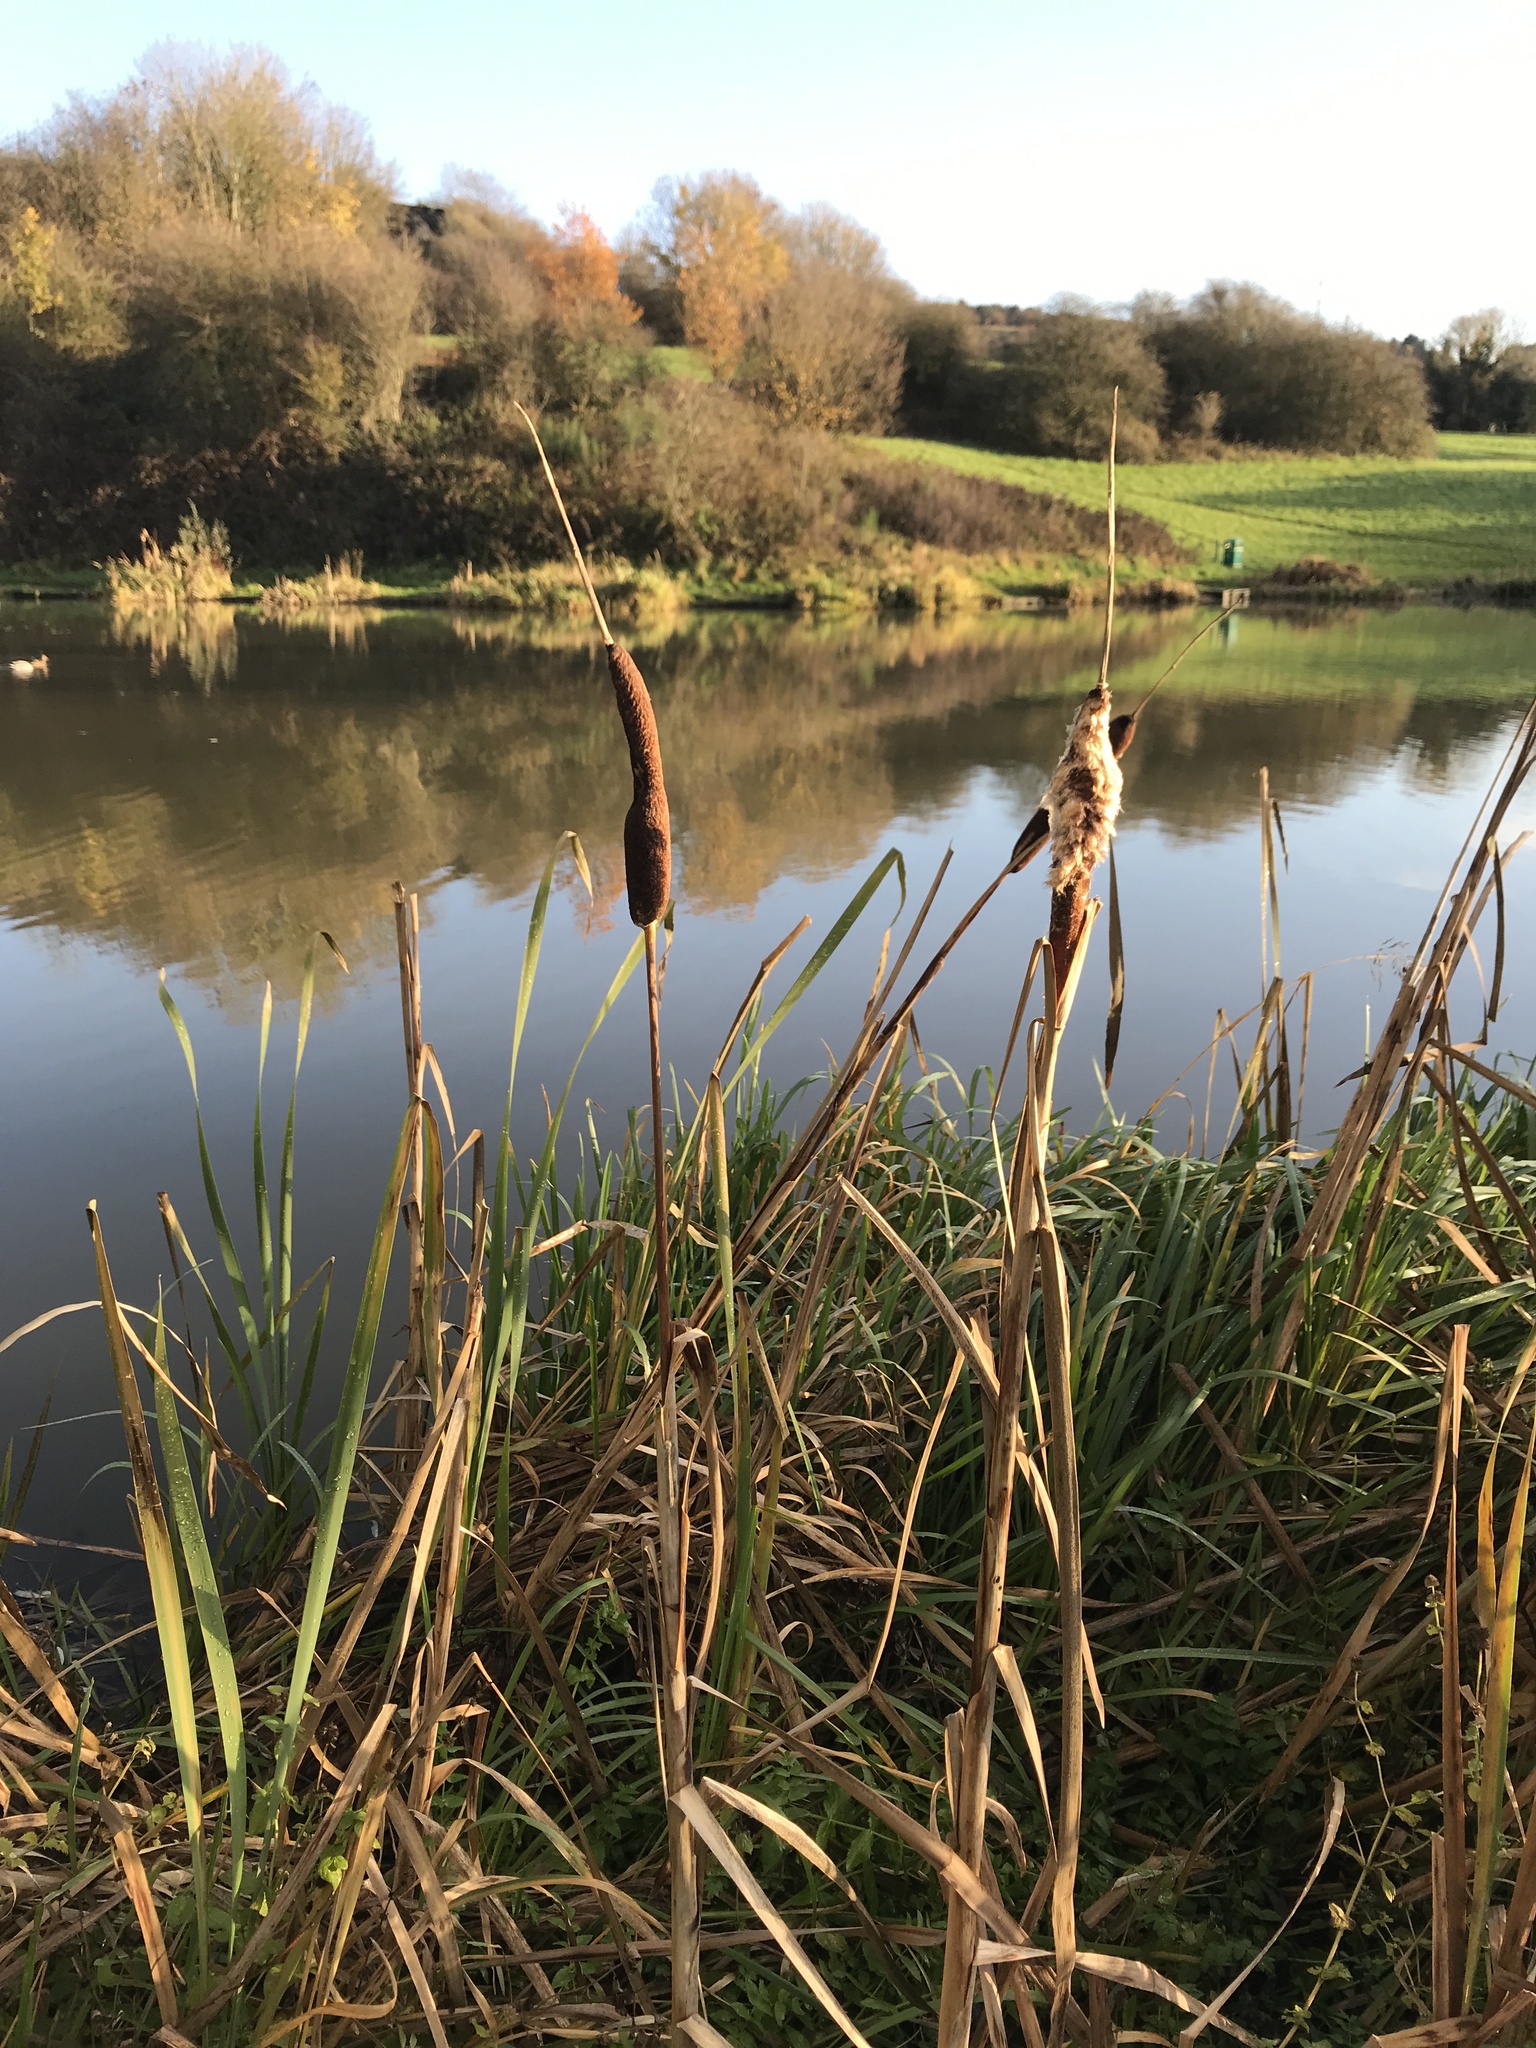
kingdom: Plantae
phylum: Tracheophyta
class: Liliopsida
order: Poales
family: Typhaceae
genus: Typha
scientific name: Typha latifolia
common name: Broadleaf cattail
